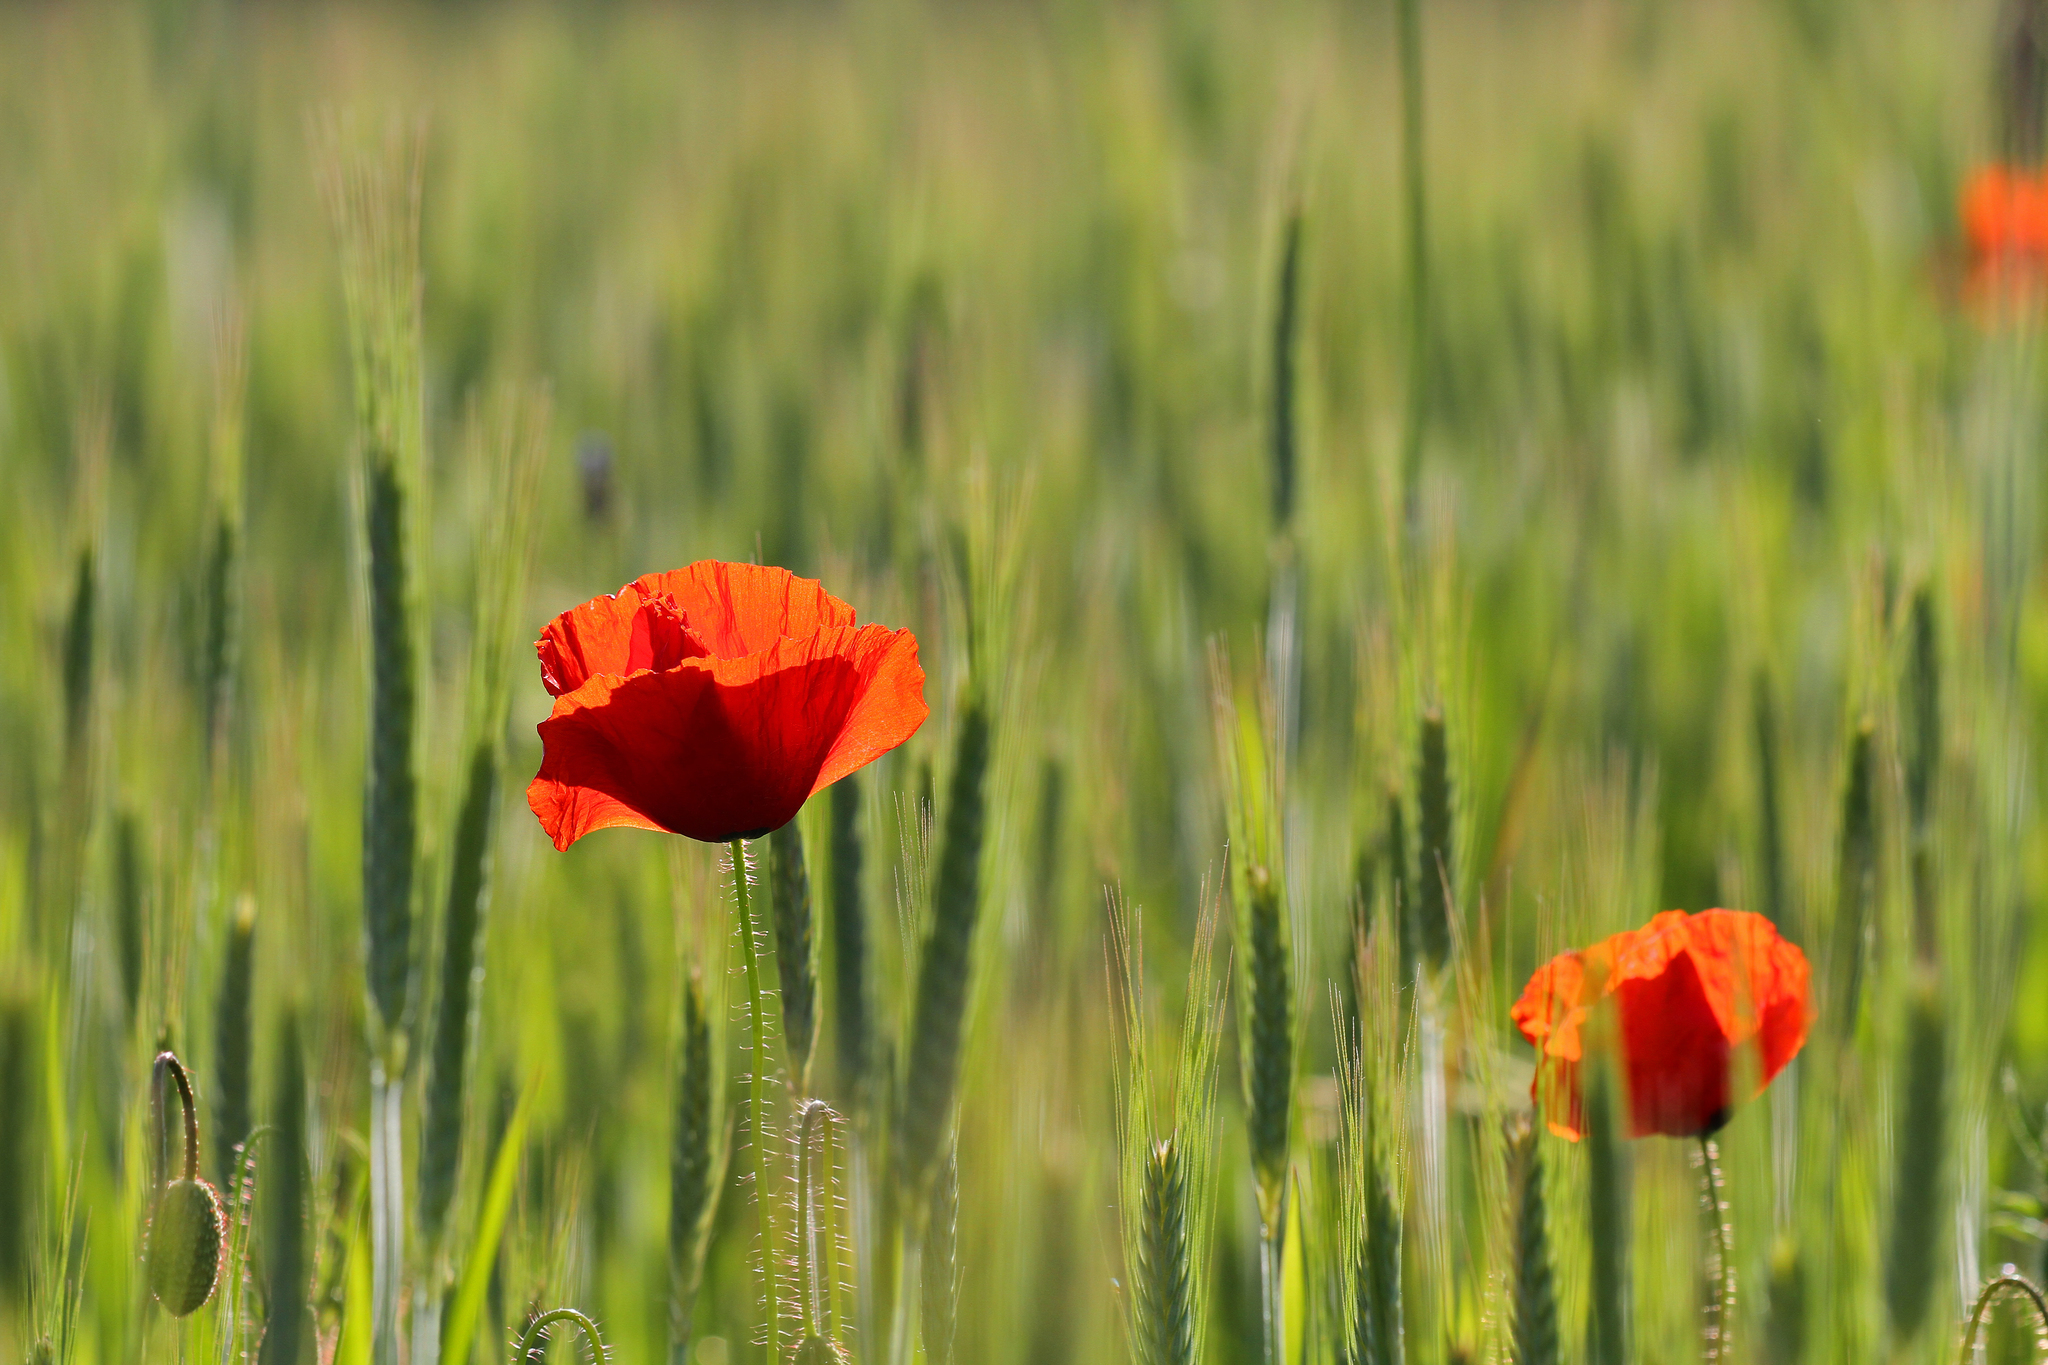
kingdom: Plantae
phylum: Tracheophyta
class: Magnoliopsida
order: Ranunculales
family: Papaveraceae
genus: Papaver
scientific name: Papaver rhoeas
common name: Corn poppy
